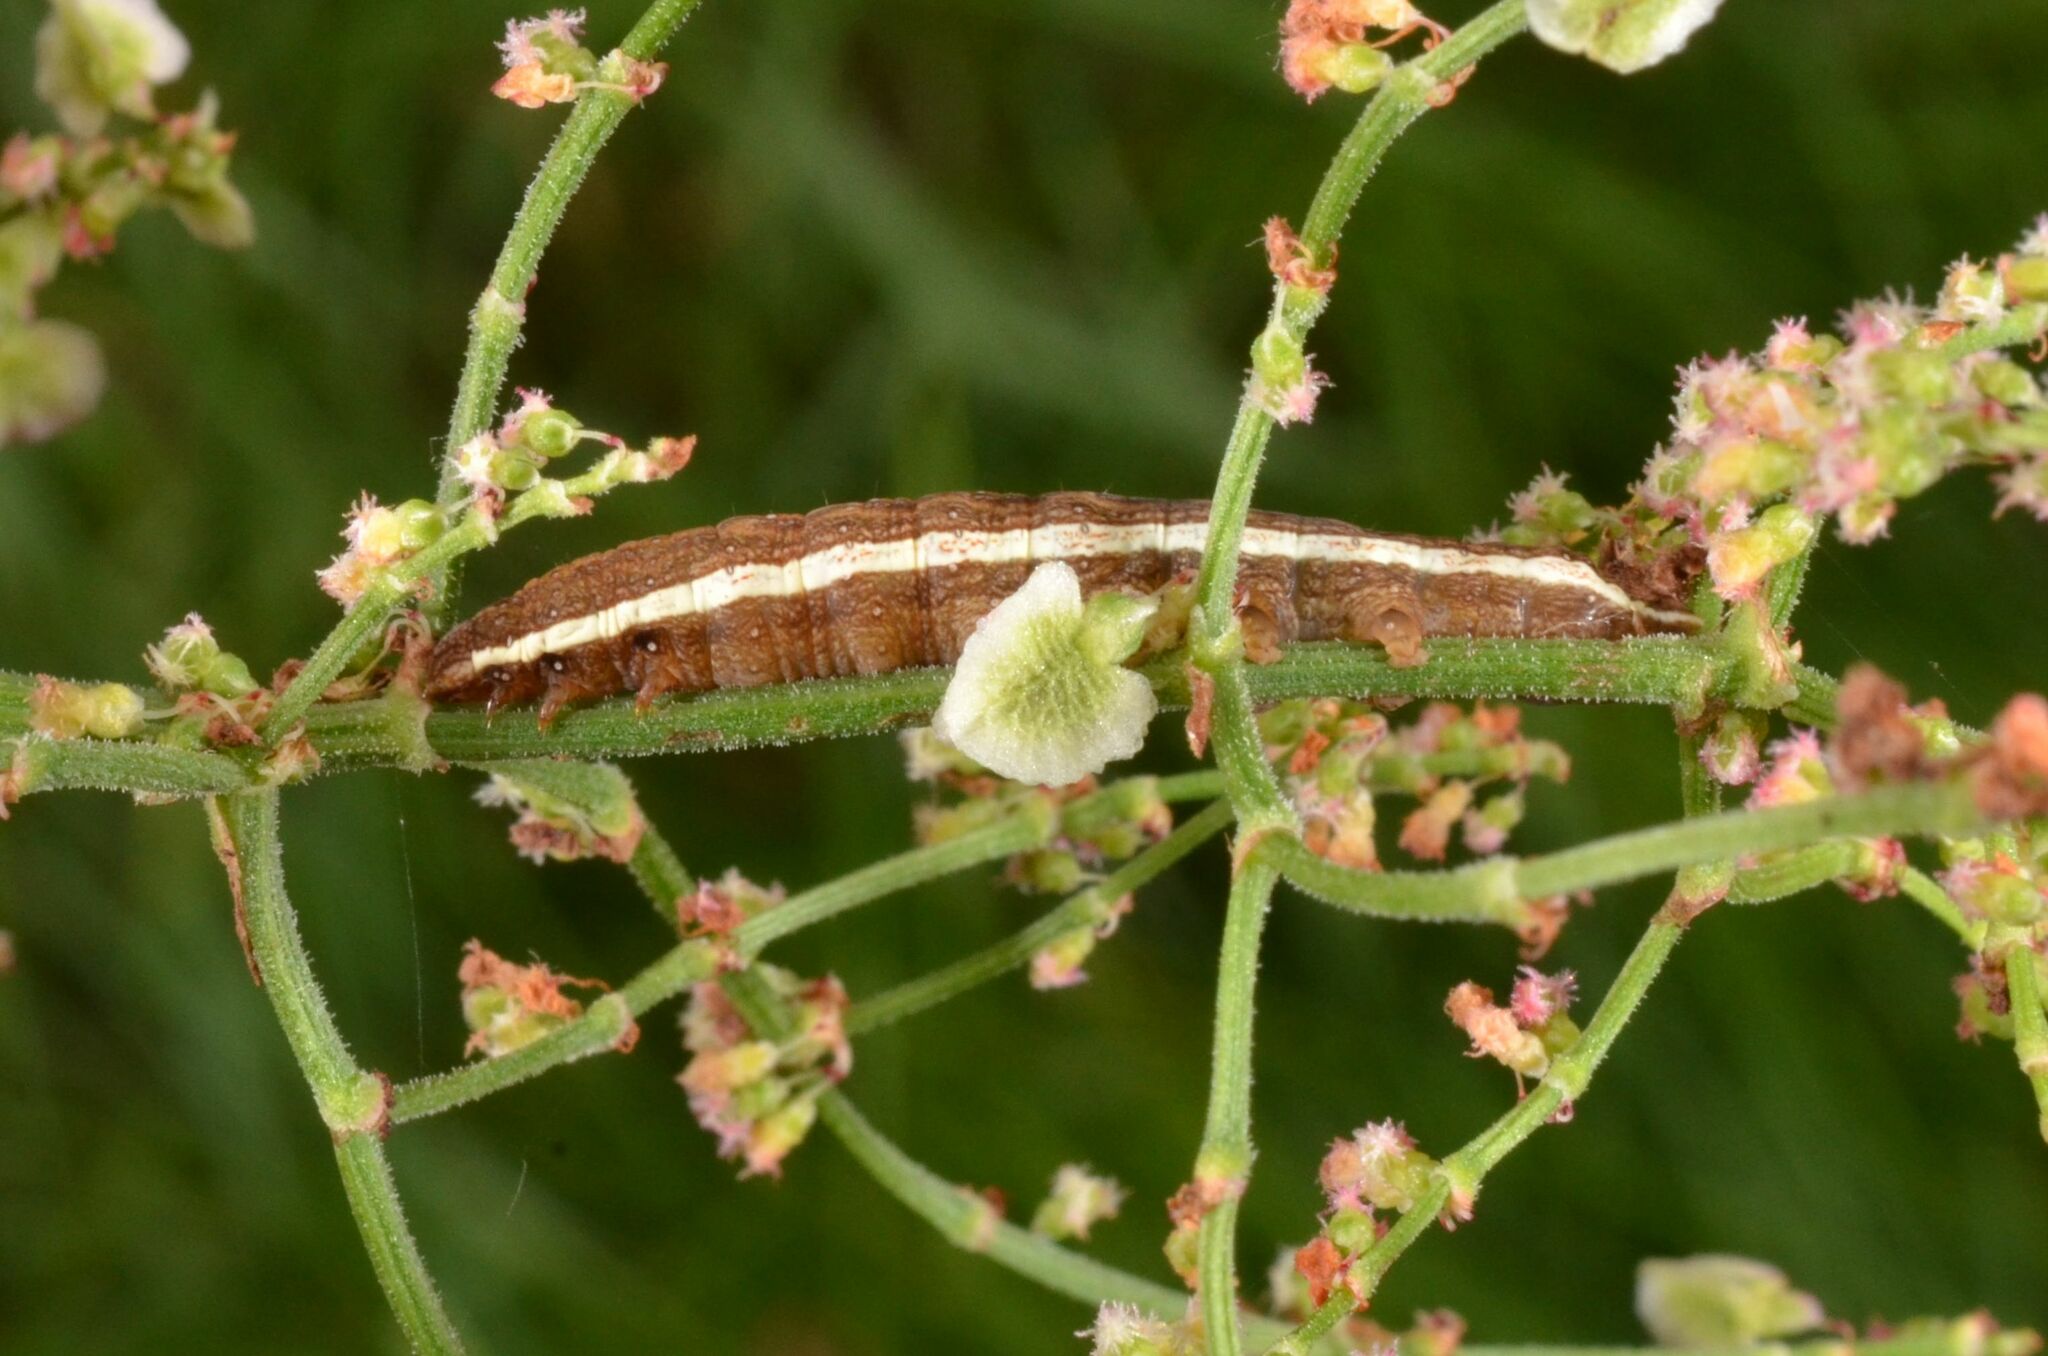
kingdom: Animalia
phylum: Arthropoda
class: Insecta
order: Lepidoptera
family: Noctuidae
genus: Dypterygia
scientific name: Dypterygia scabriuscula
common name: Bird's wing
